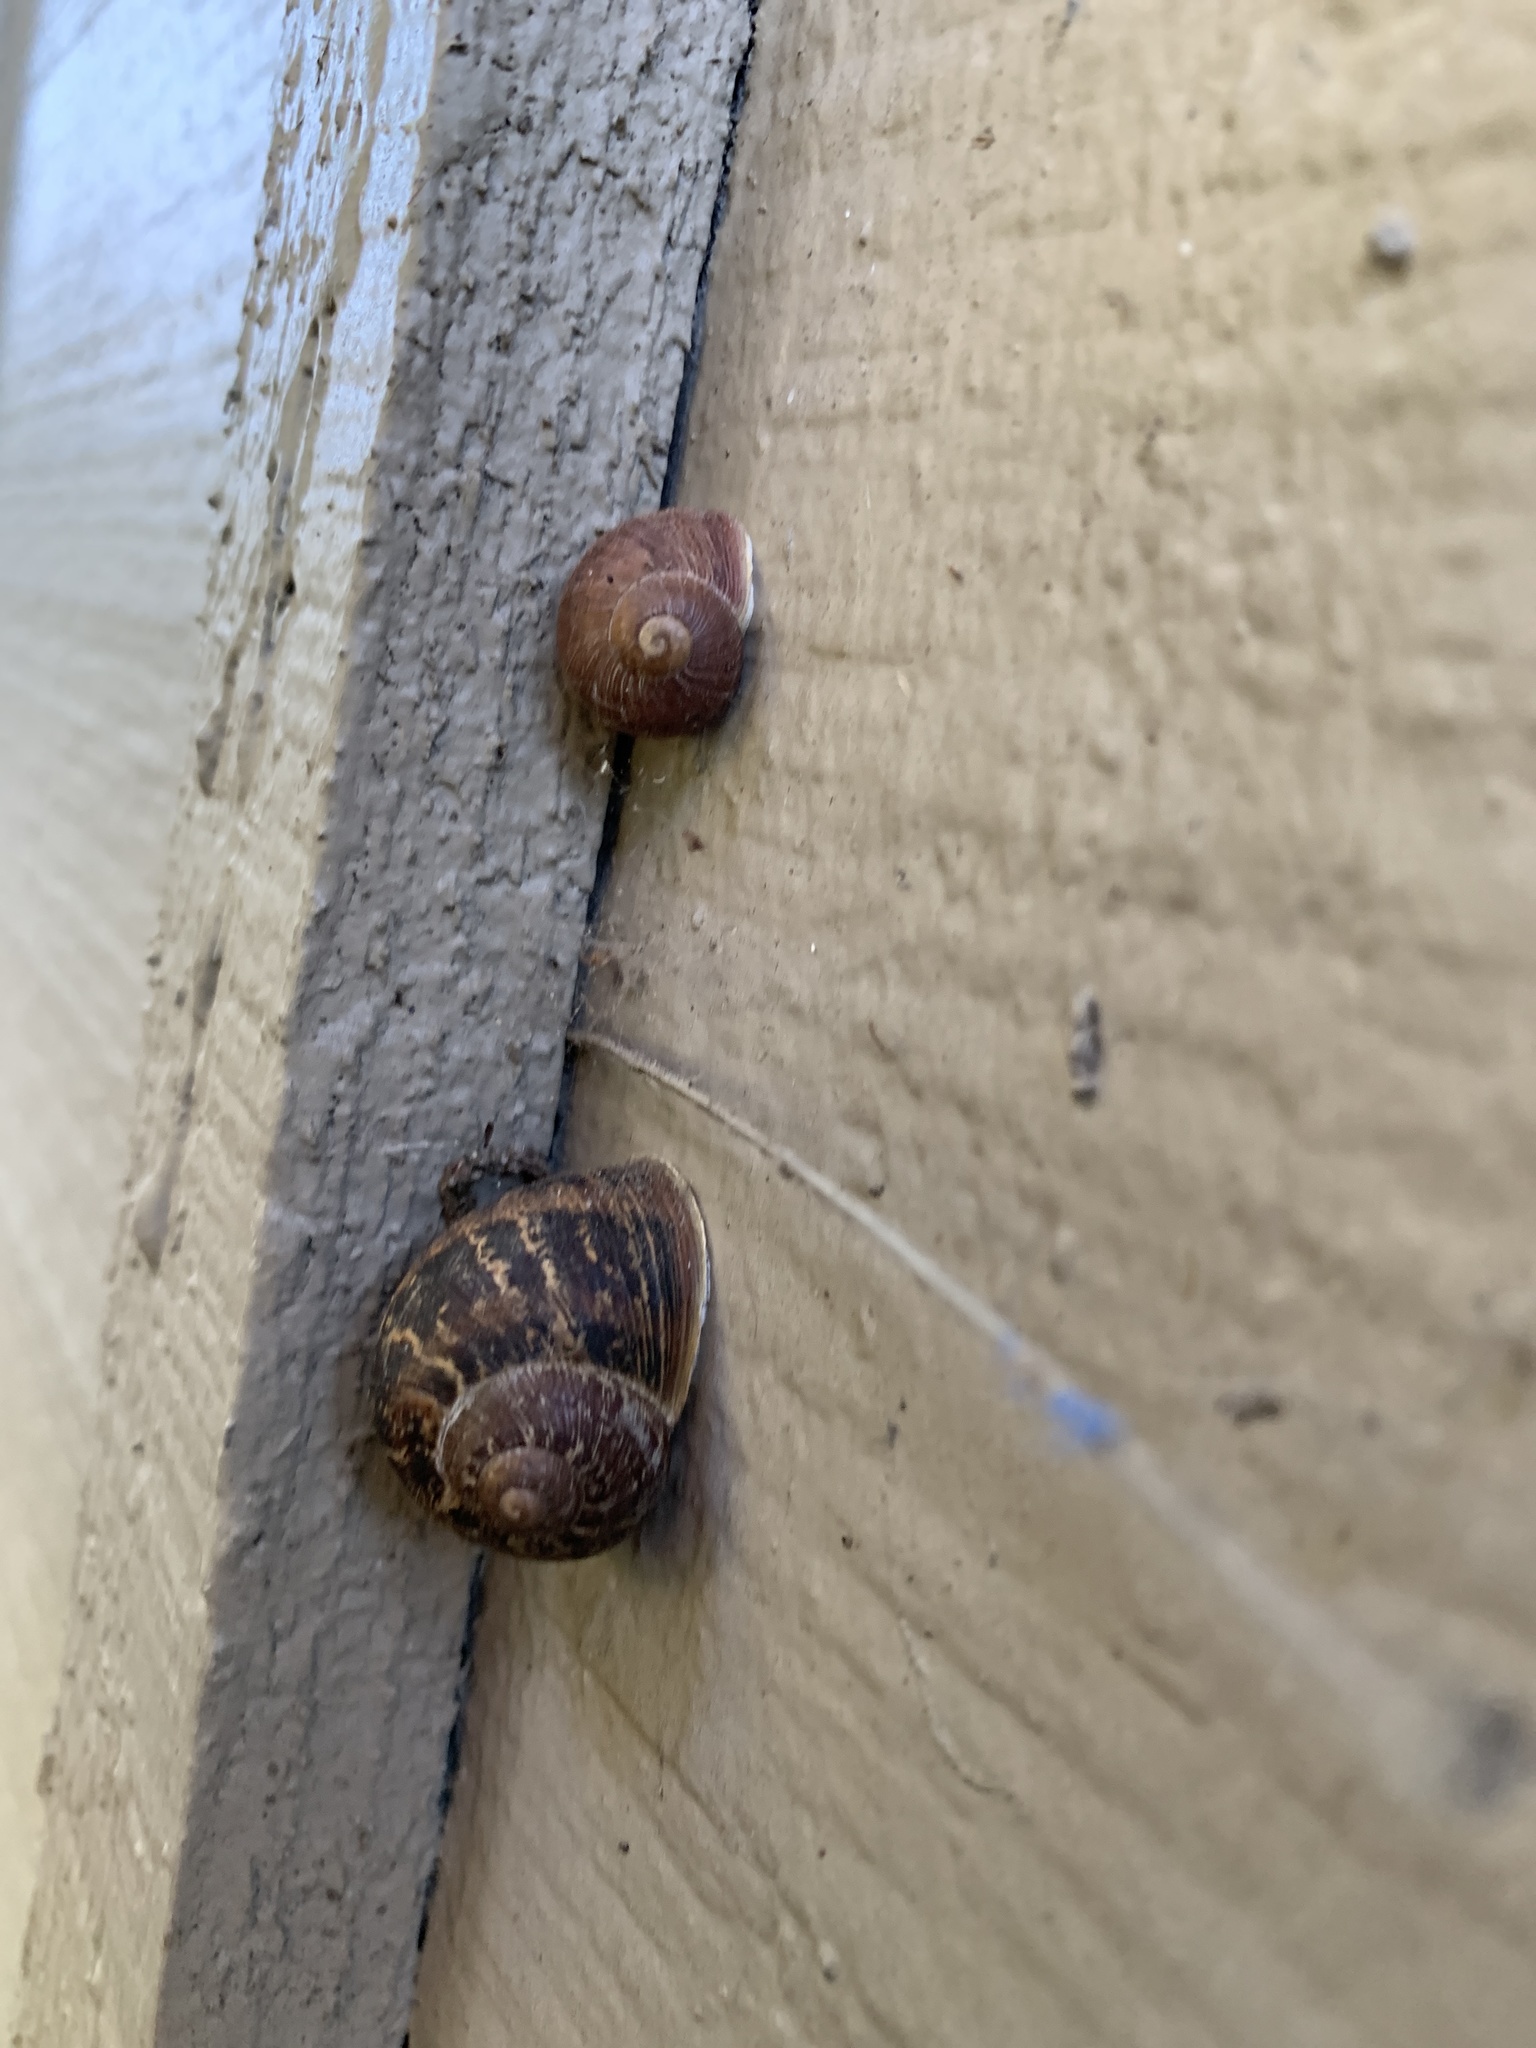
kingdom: Animalia
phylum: Mollusca
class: Gastropoda
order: Stylommatophora
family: Helicidae
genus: Cornu
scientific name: Cornu aspersum
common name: Brown garden snail
